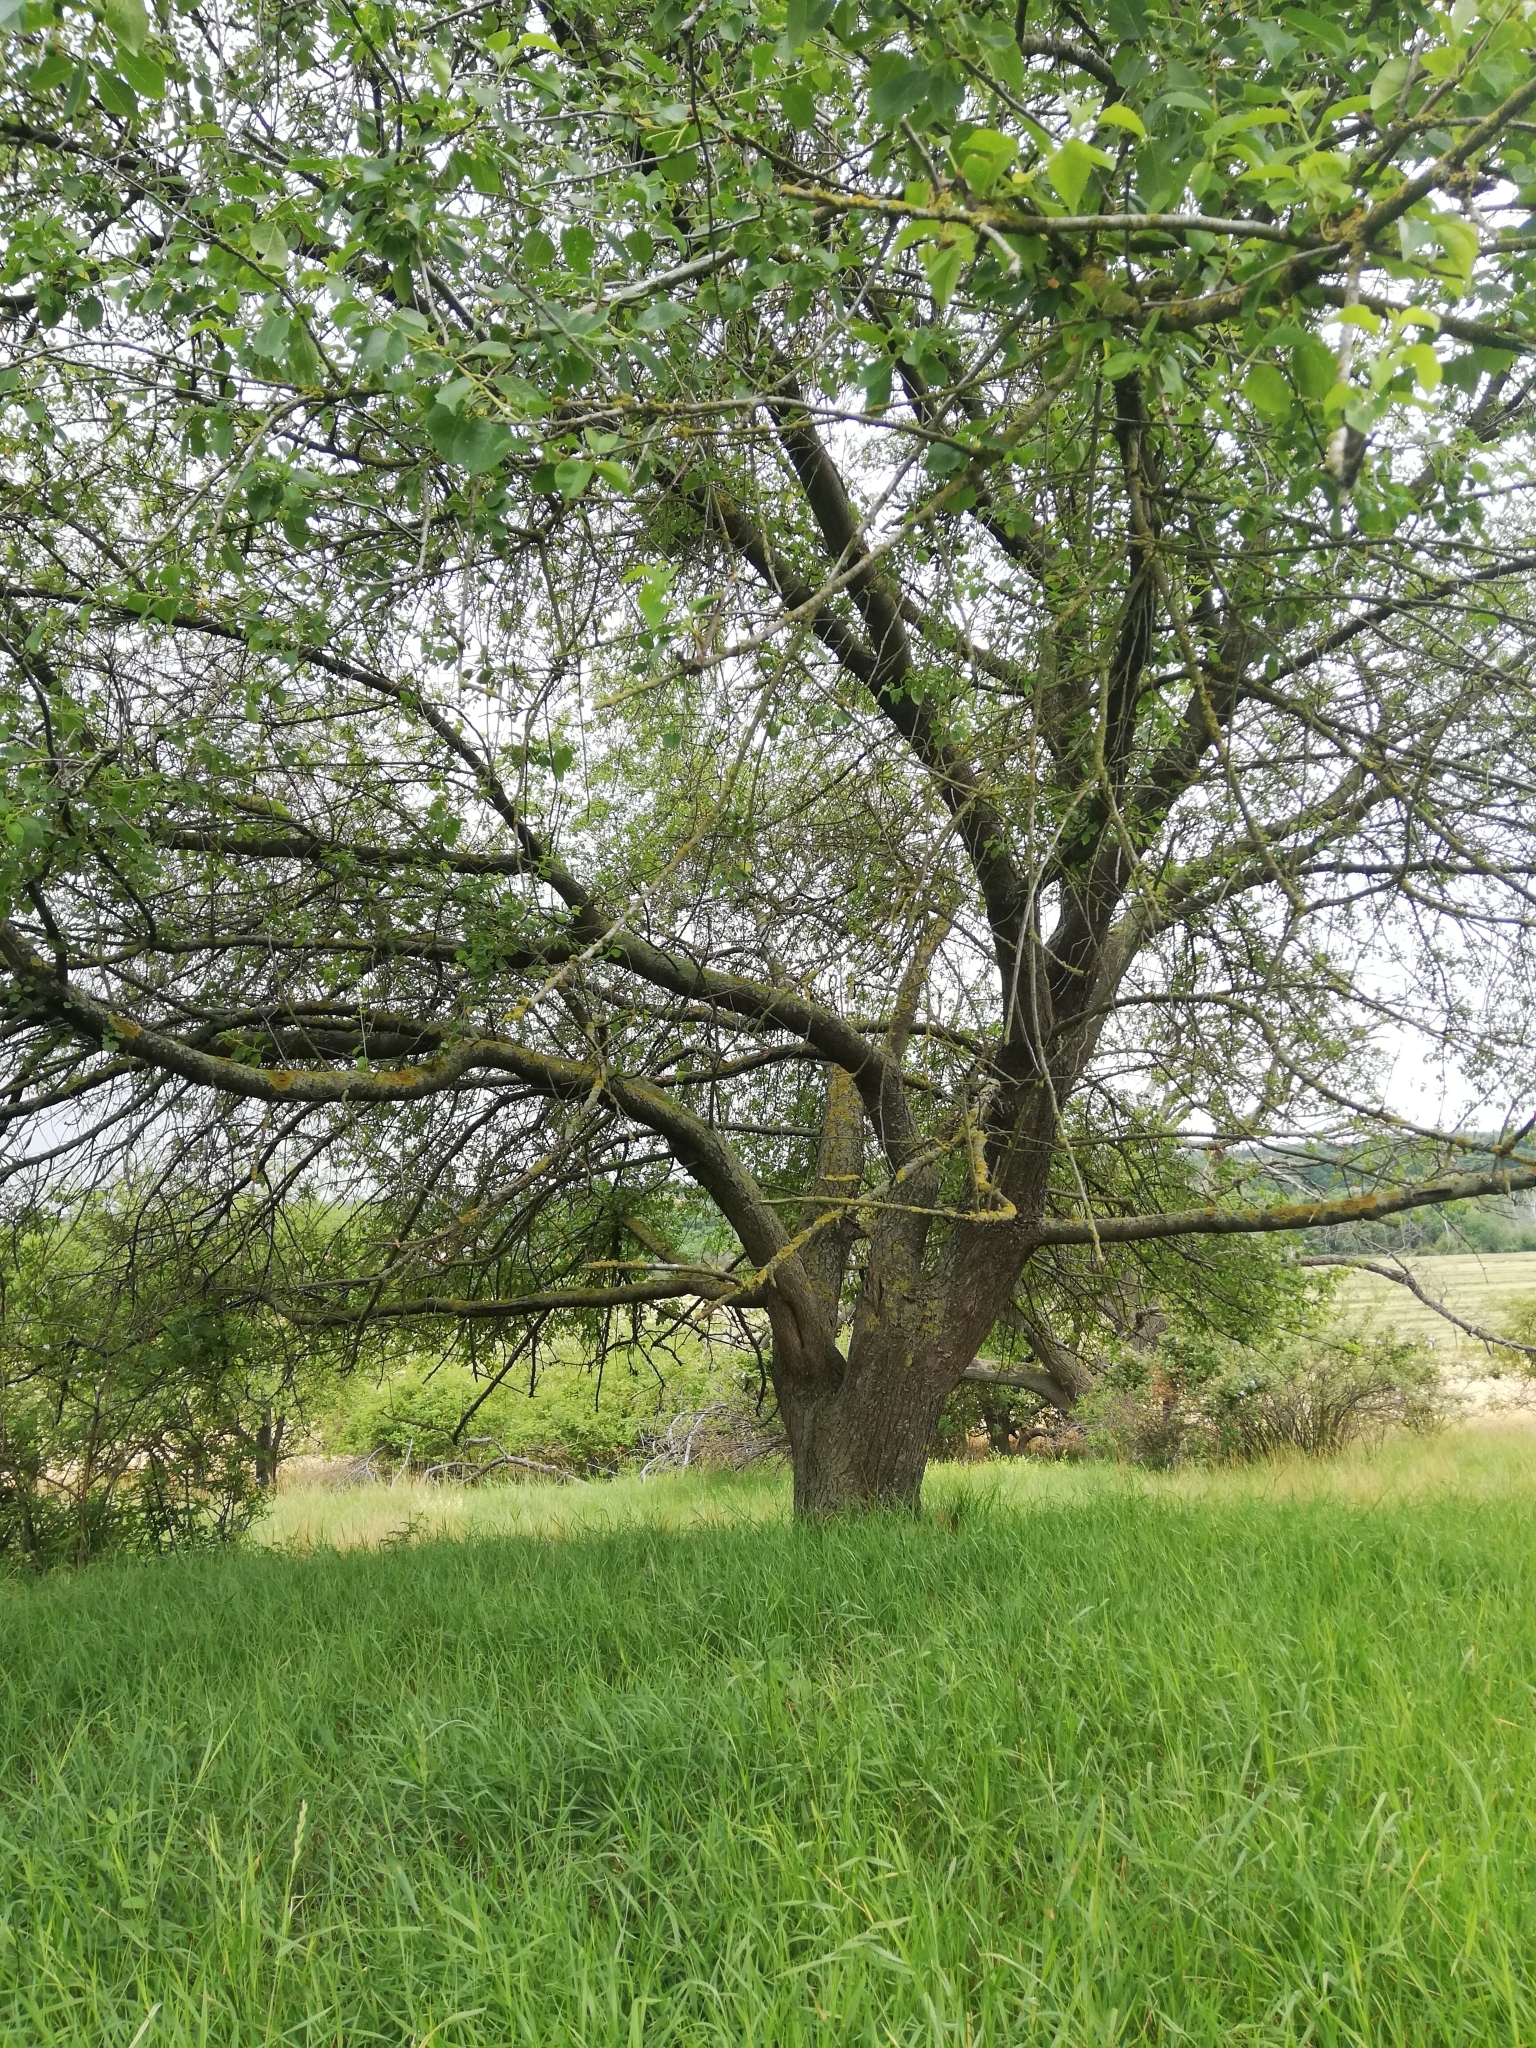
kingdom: Plantae
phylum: Tracheophyta
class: Magnoliopsida
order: Rosales
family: Rosaceae
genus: Prunus
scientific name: Prunus mahaleb
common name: Mahaleb cherry
